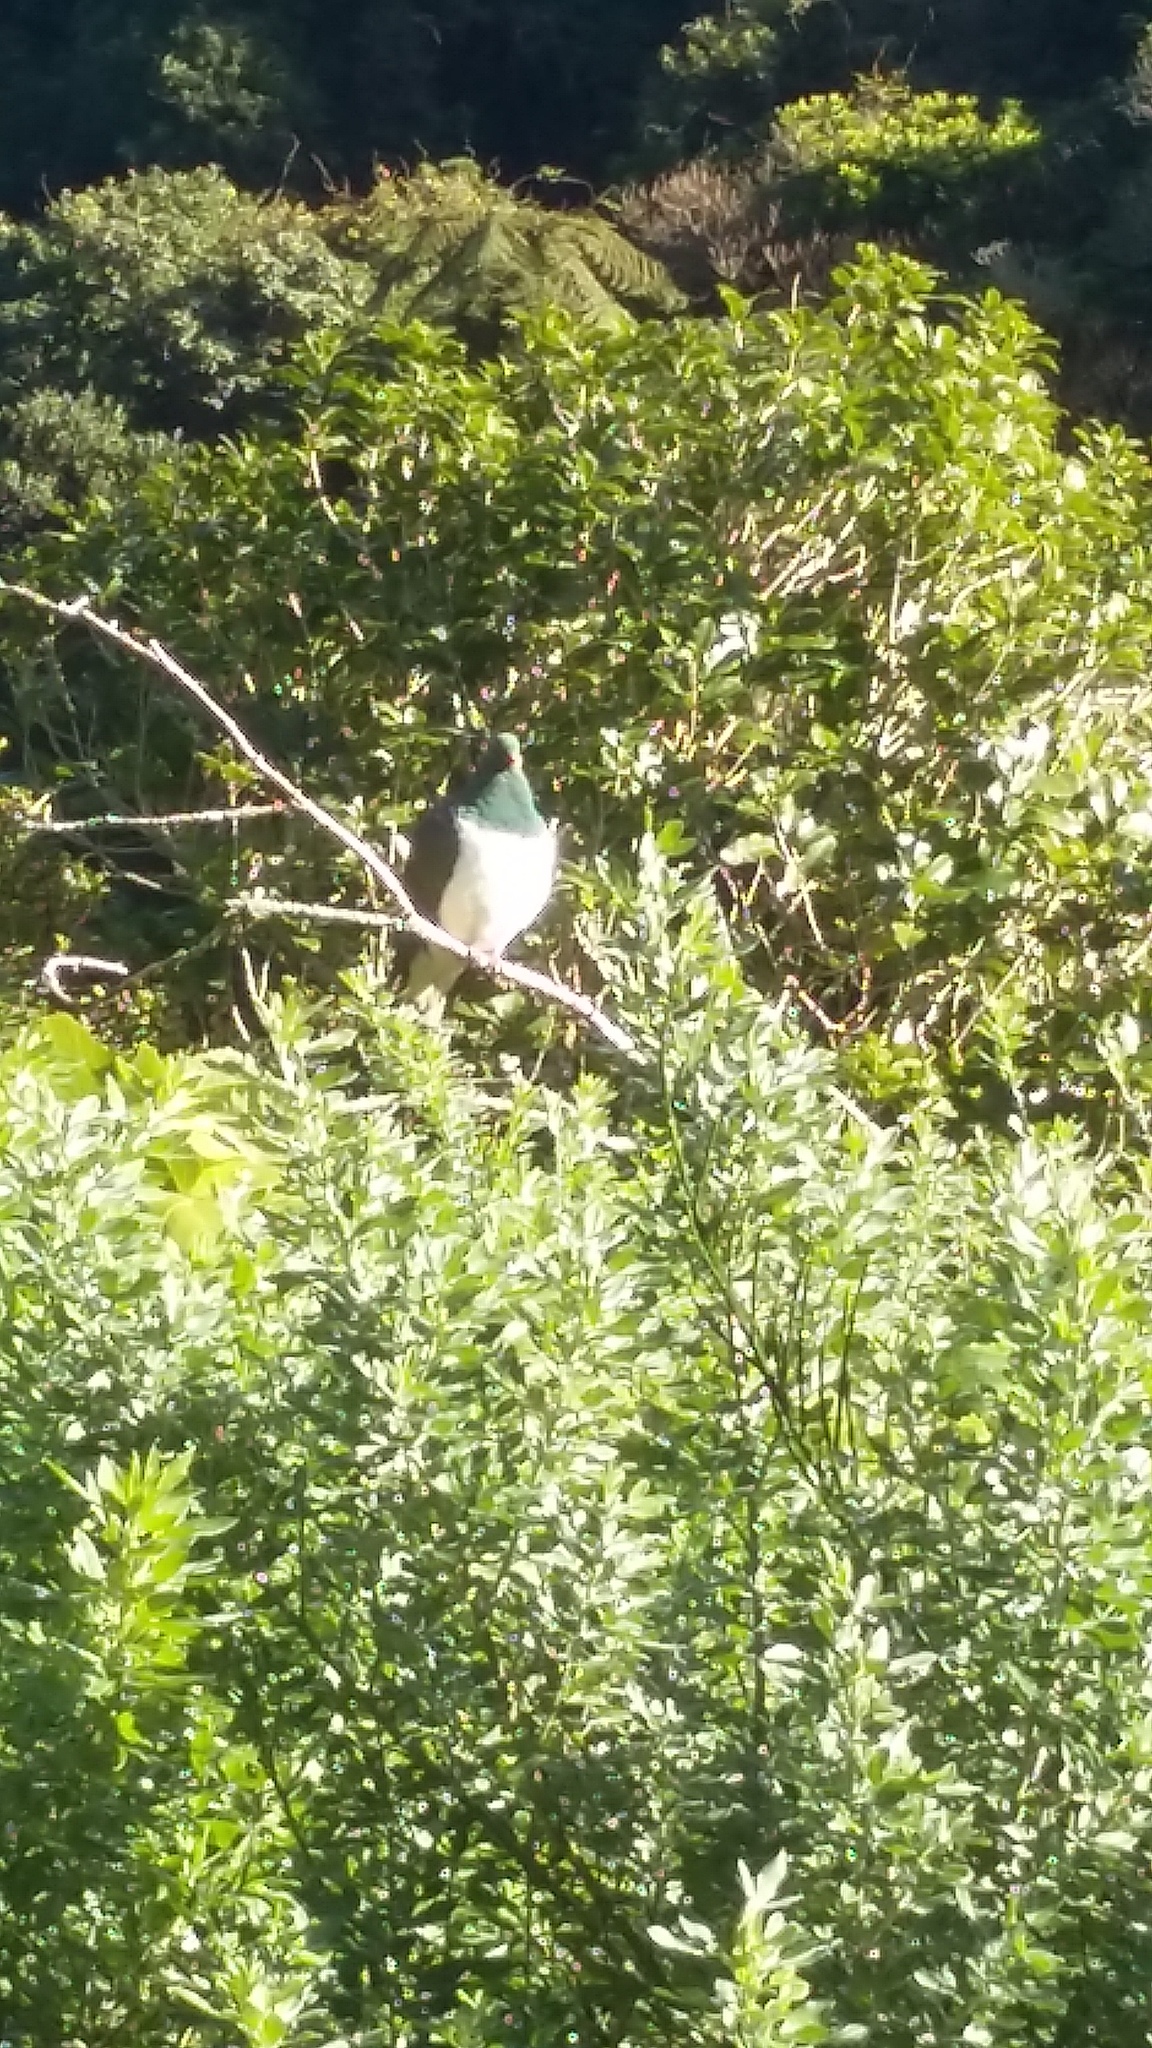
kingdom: Animalia
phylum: Chordata
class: Aves
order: Columbiformes
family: Columbidae
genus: Hemiphaga
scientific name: Hemiphaga novaeseelandiae
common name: New zealand pigeon
